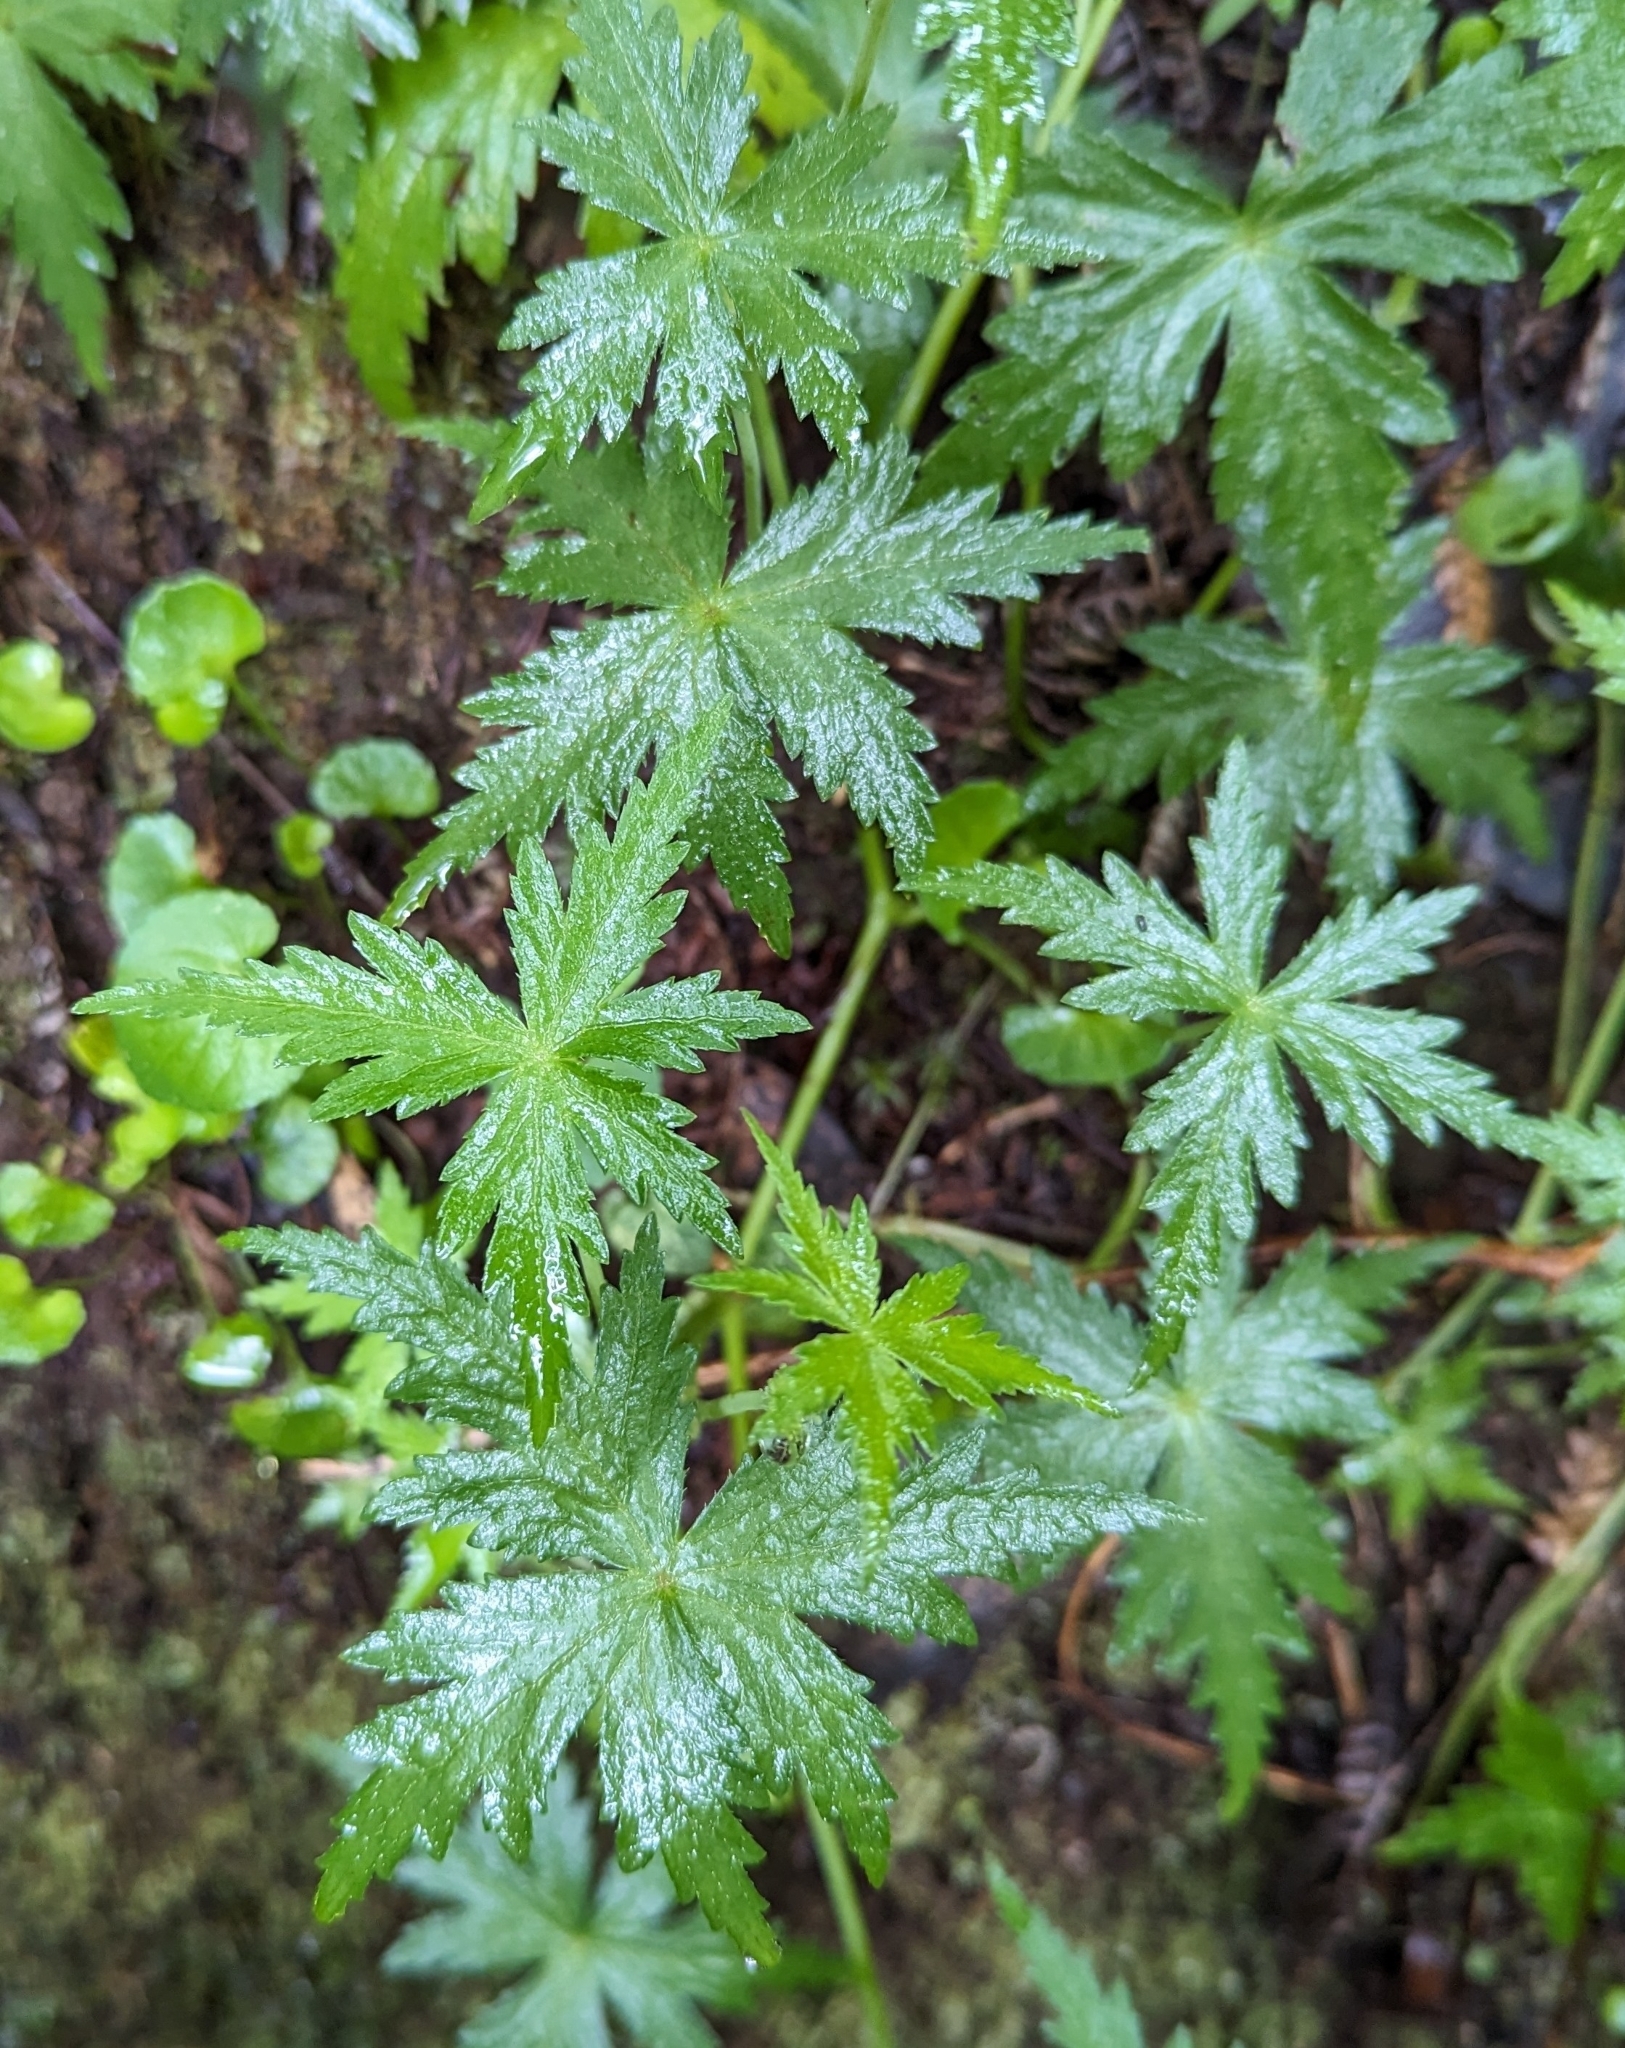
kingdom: Plantae
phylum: Tracheophyta
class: Magnoliopsida
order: Apiales
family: Araliaceae
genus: Hydrocotyle
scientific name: Hydrocotyle geraniifolia
